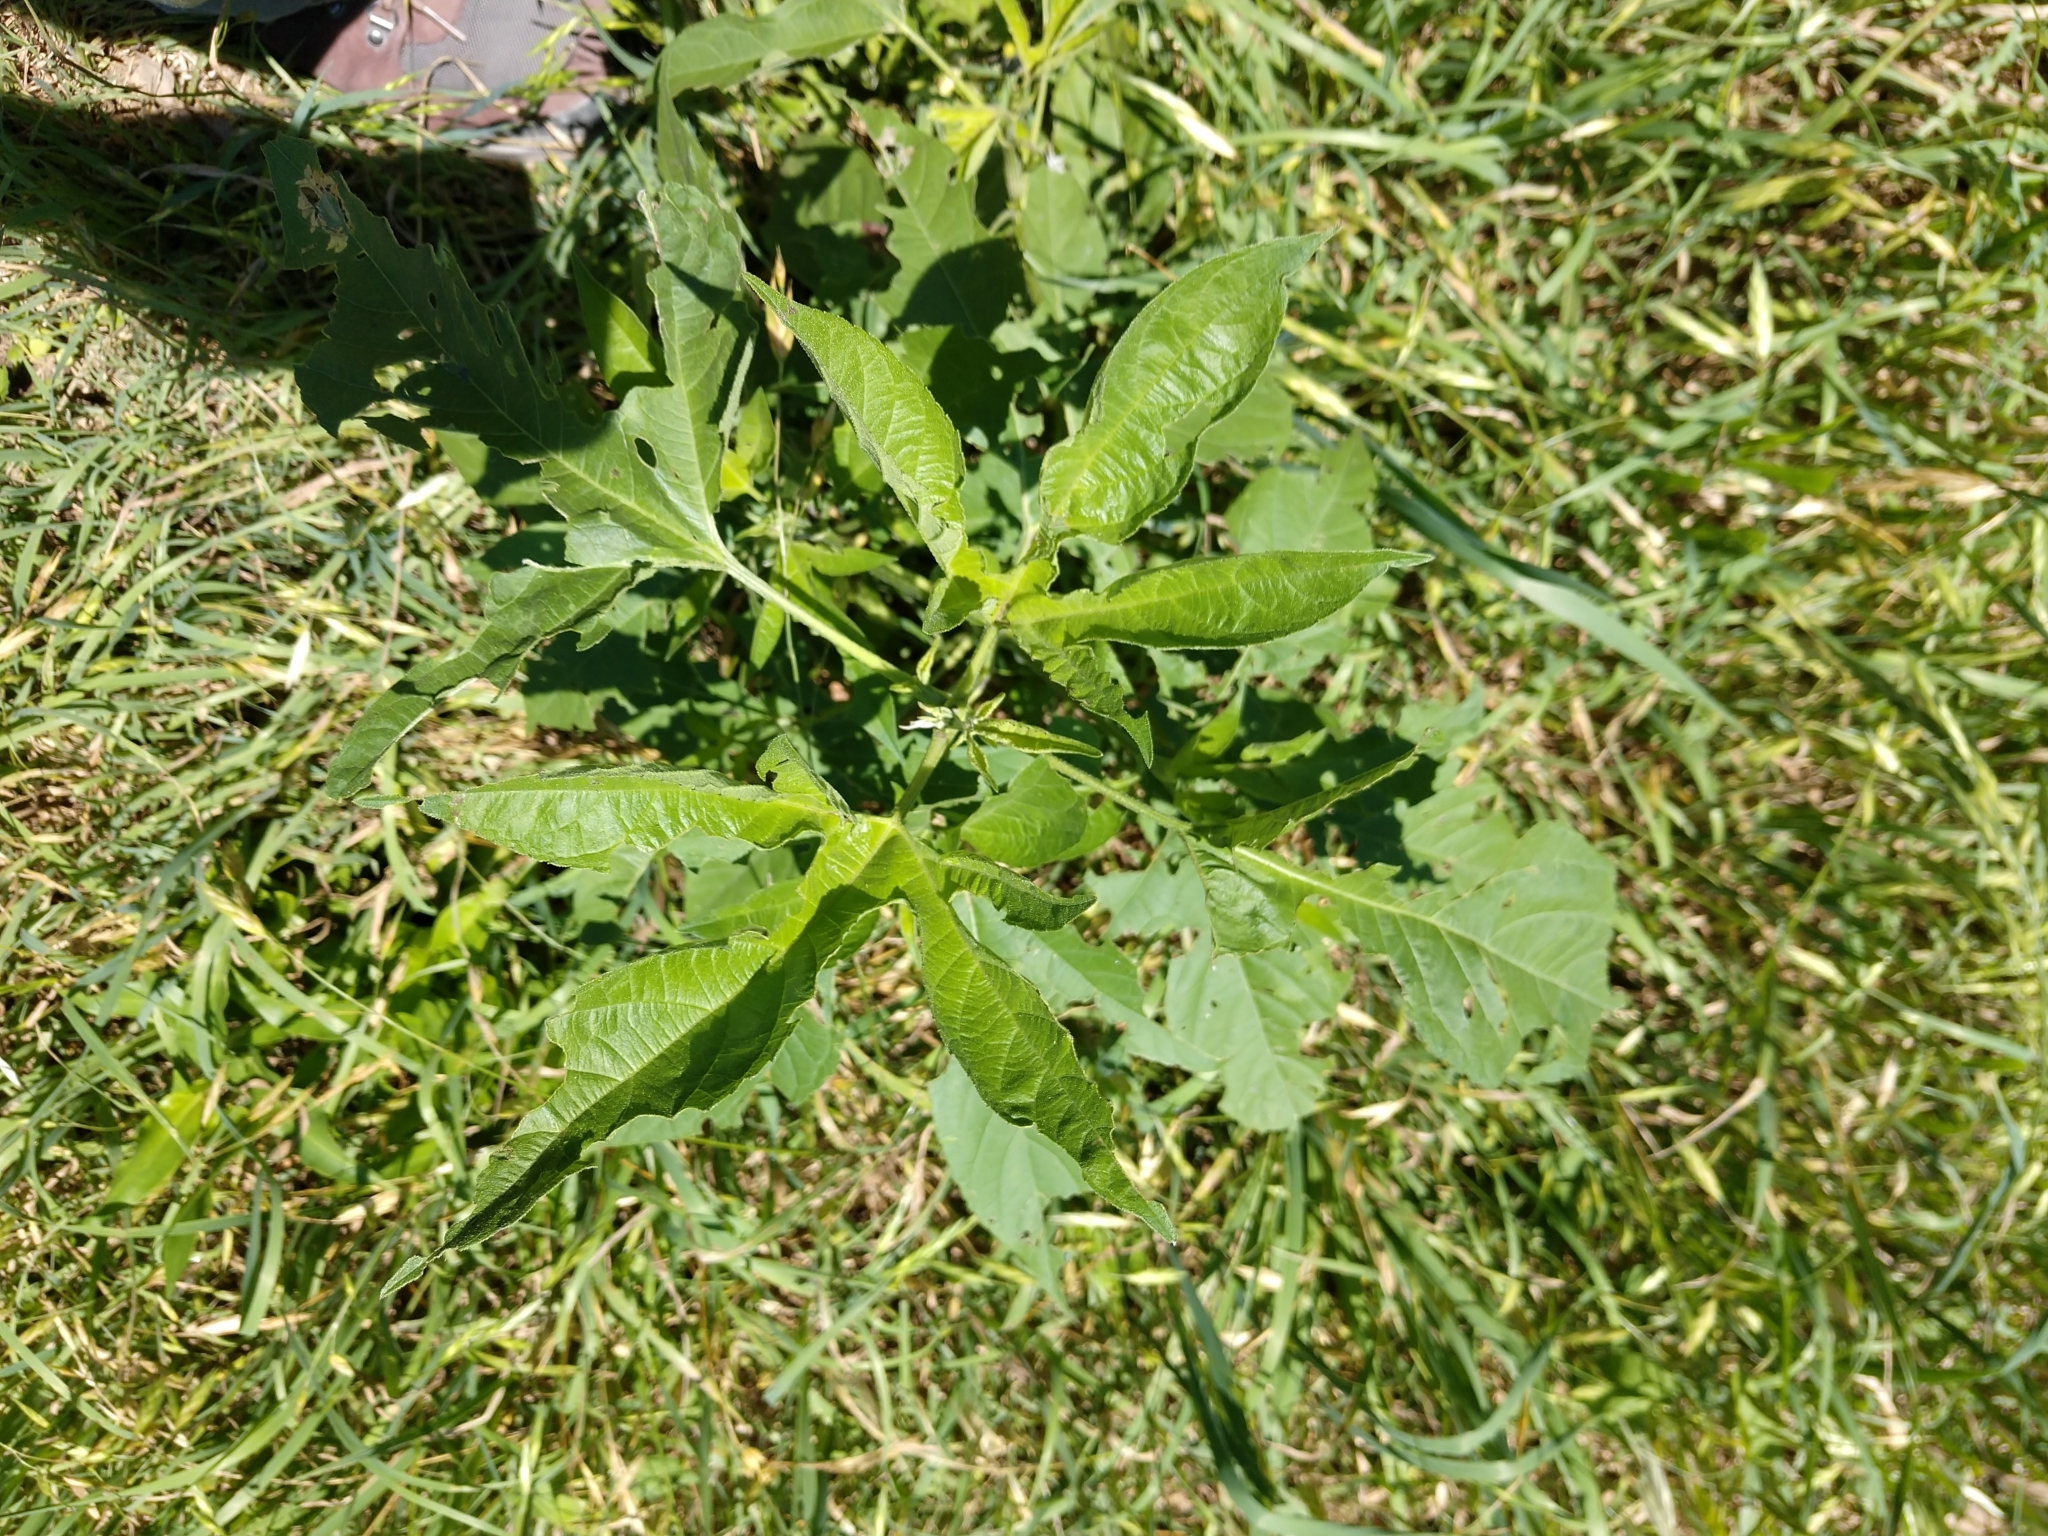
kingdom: Plantae
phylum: Tracheophyta
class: Magnoliopsida
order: Asterales
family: Asteraceae
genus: Ambrosia
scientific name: Ambrosia trifida
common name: Giant ragweed
